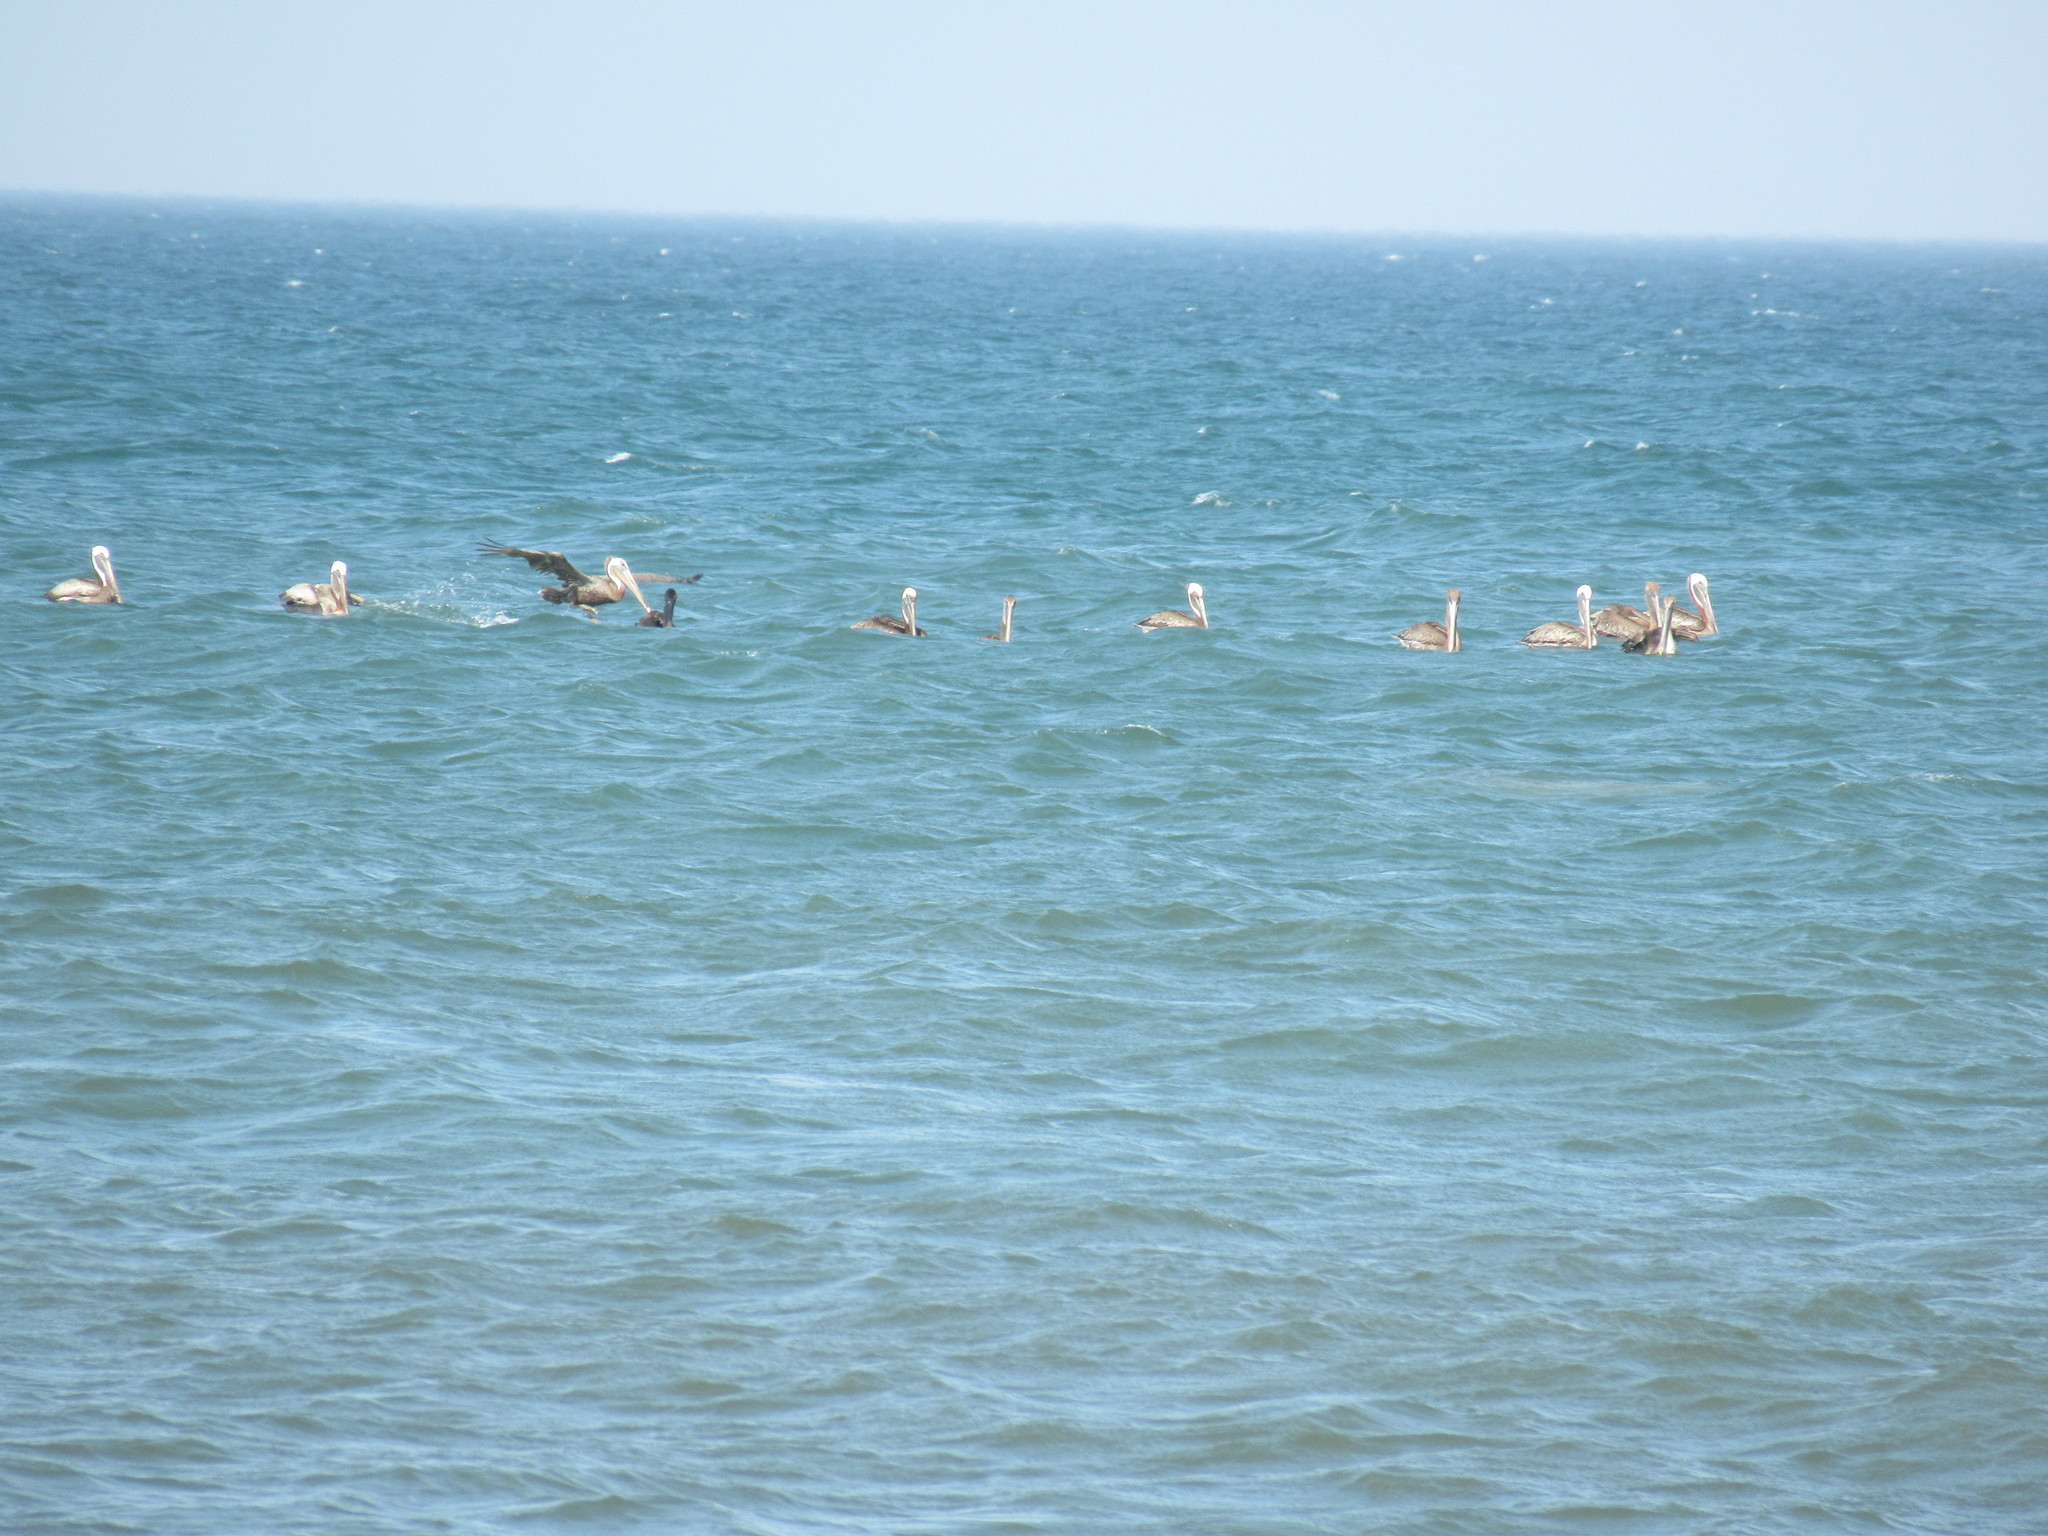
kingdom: Animalia
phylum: Chordata
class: Aves
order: Pelecaniformes
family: Pelecanidae
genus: Pelecanus
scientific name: Pelecanus occidentalis
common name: Brown pelican
